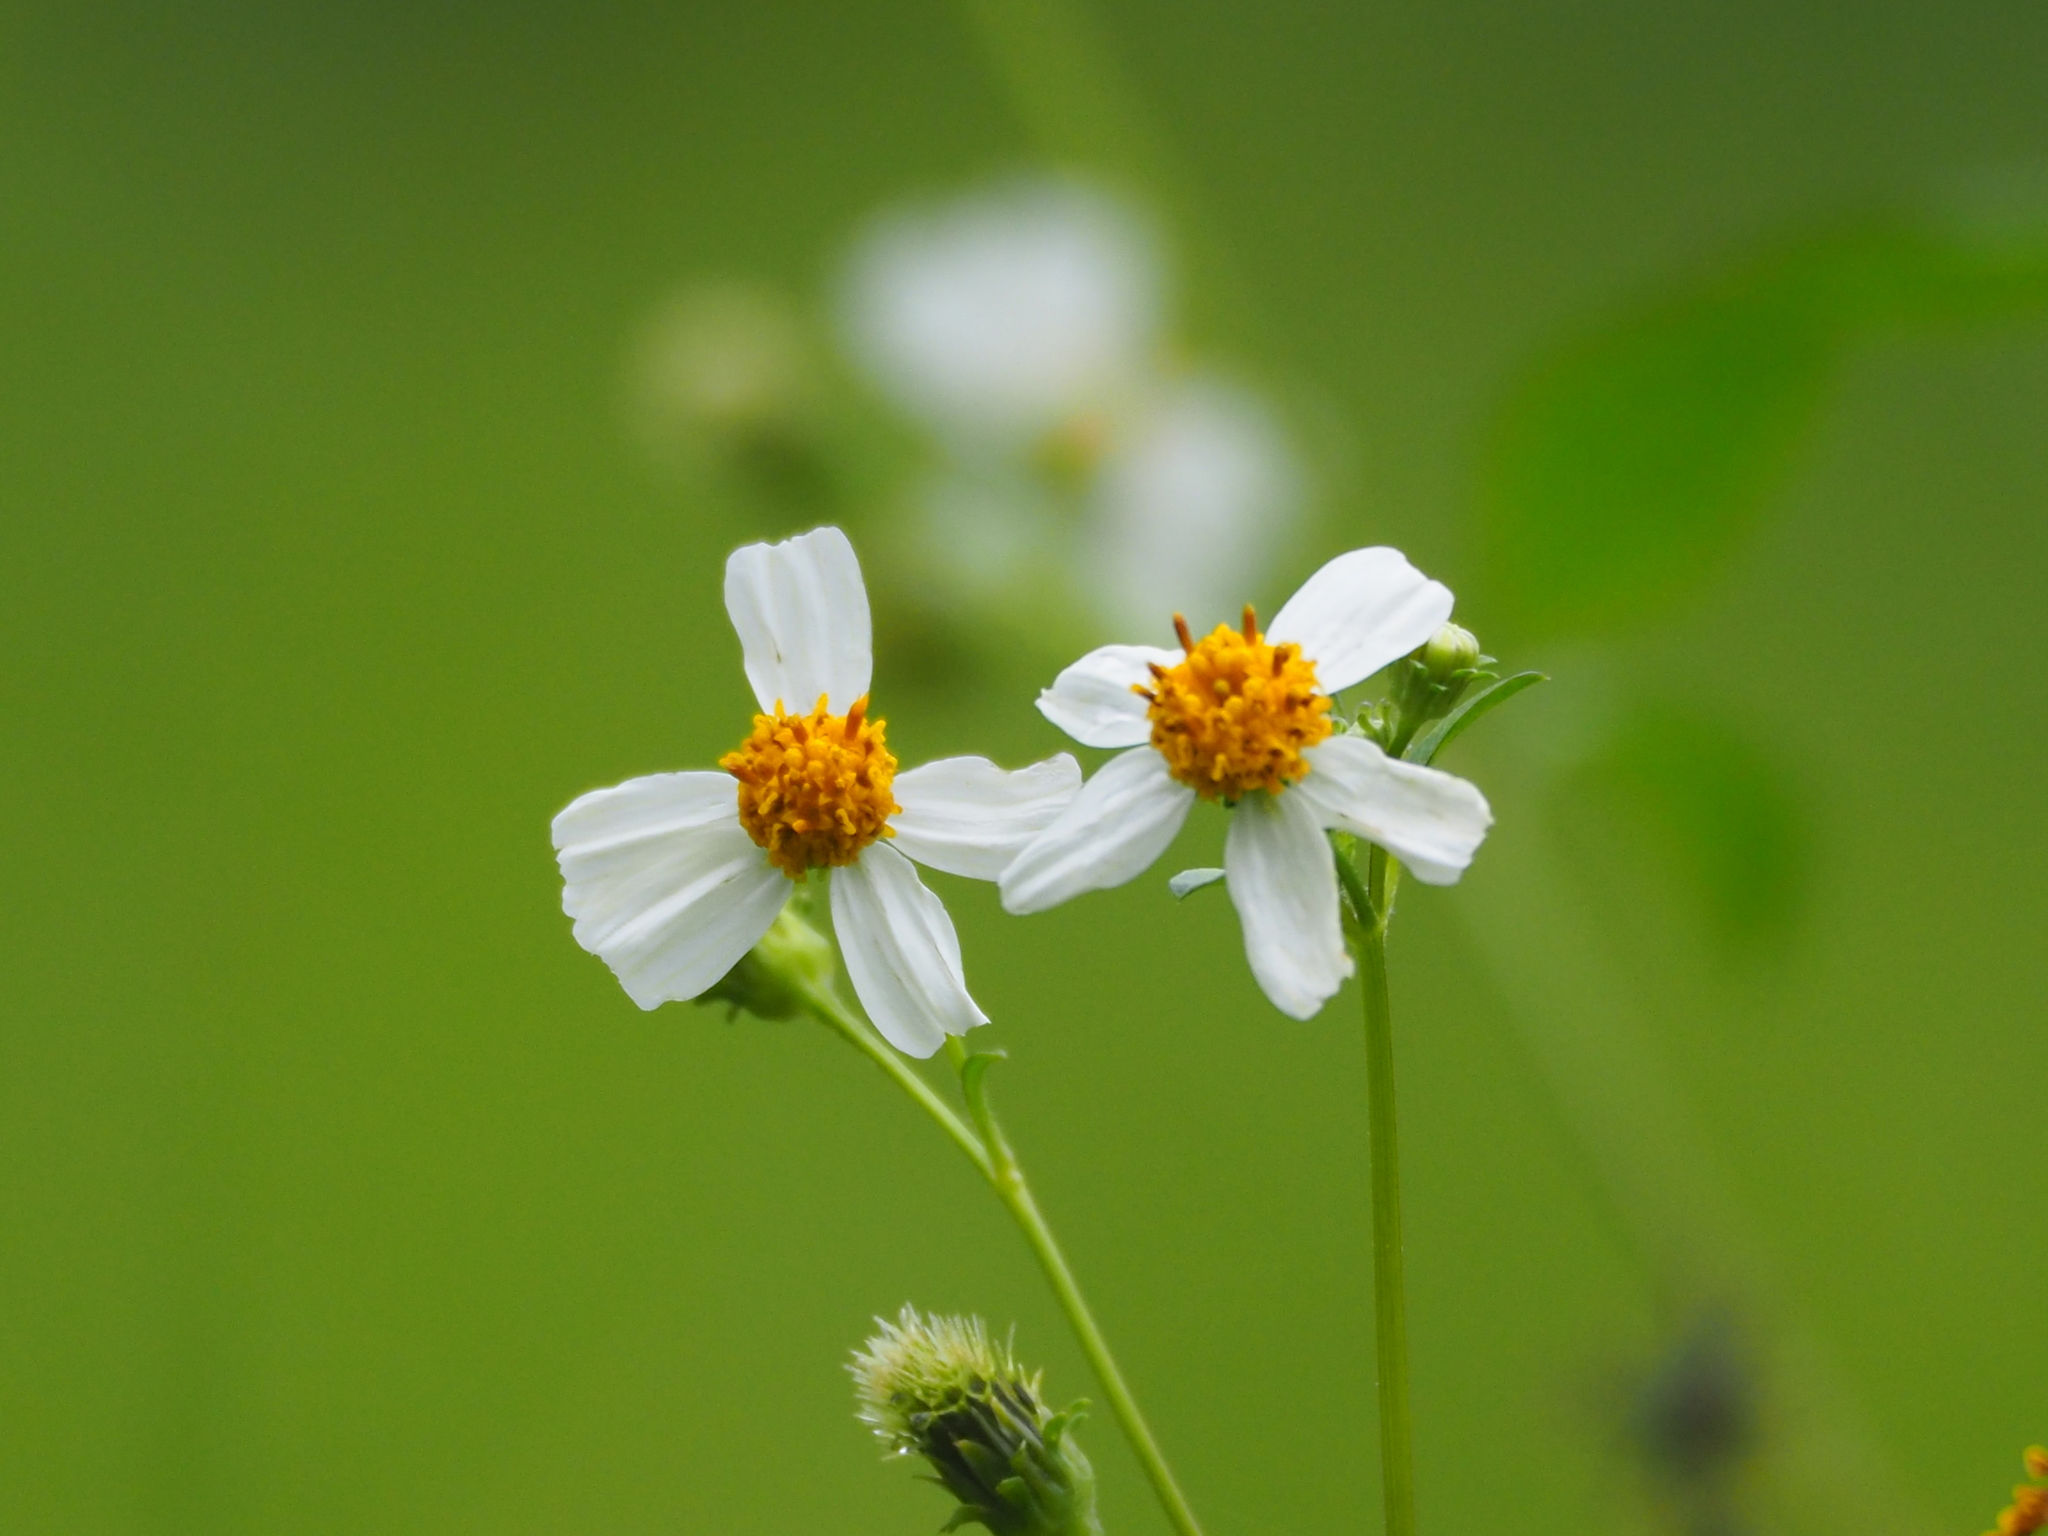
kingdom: Plantae
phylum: Tracheophyta
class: Magnoliopsida
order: Asterales
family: Asteraceae
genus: Bidens
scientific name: Bidens alba
